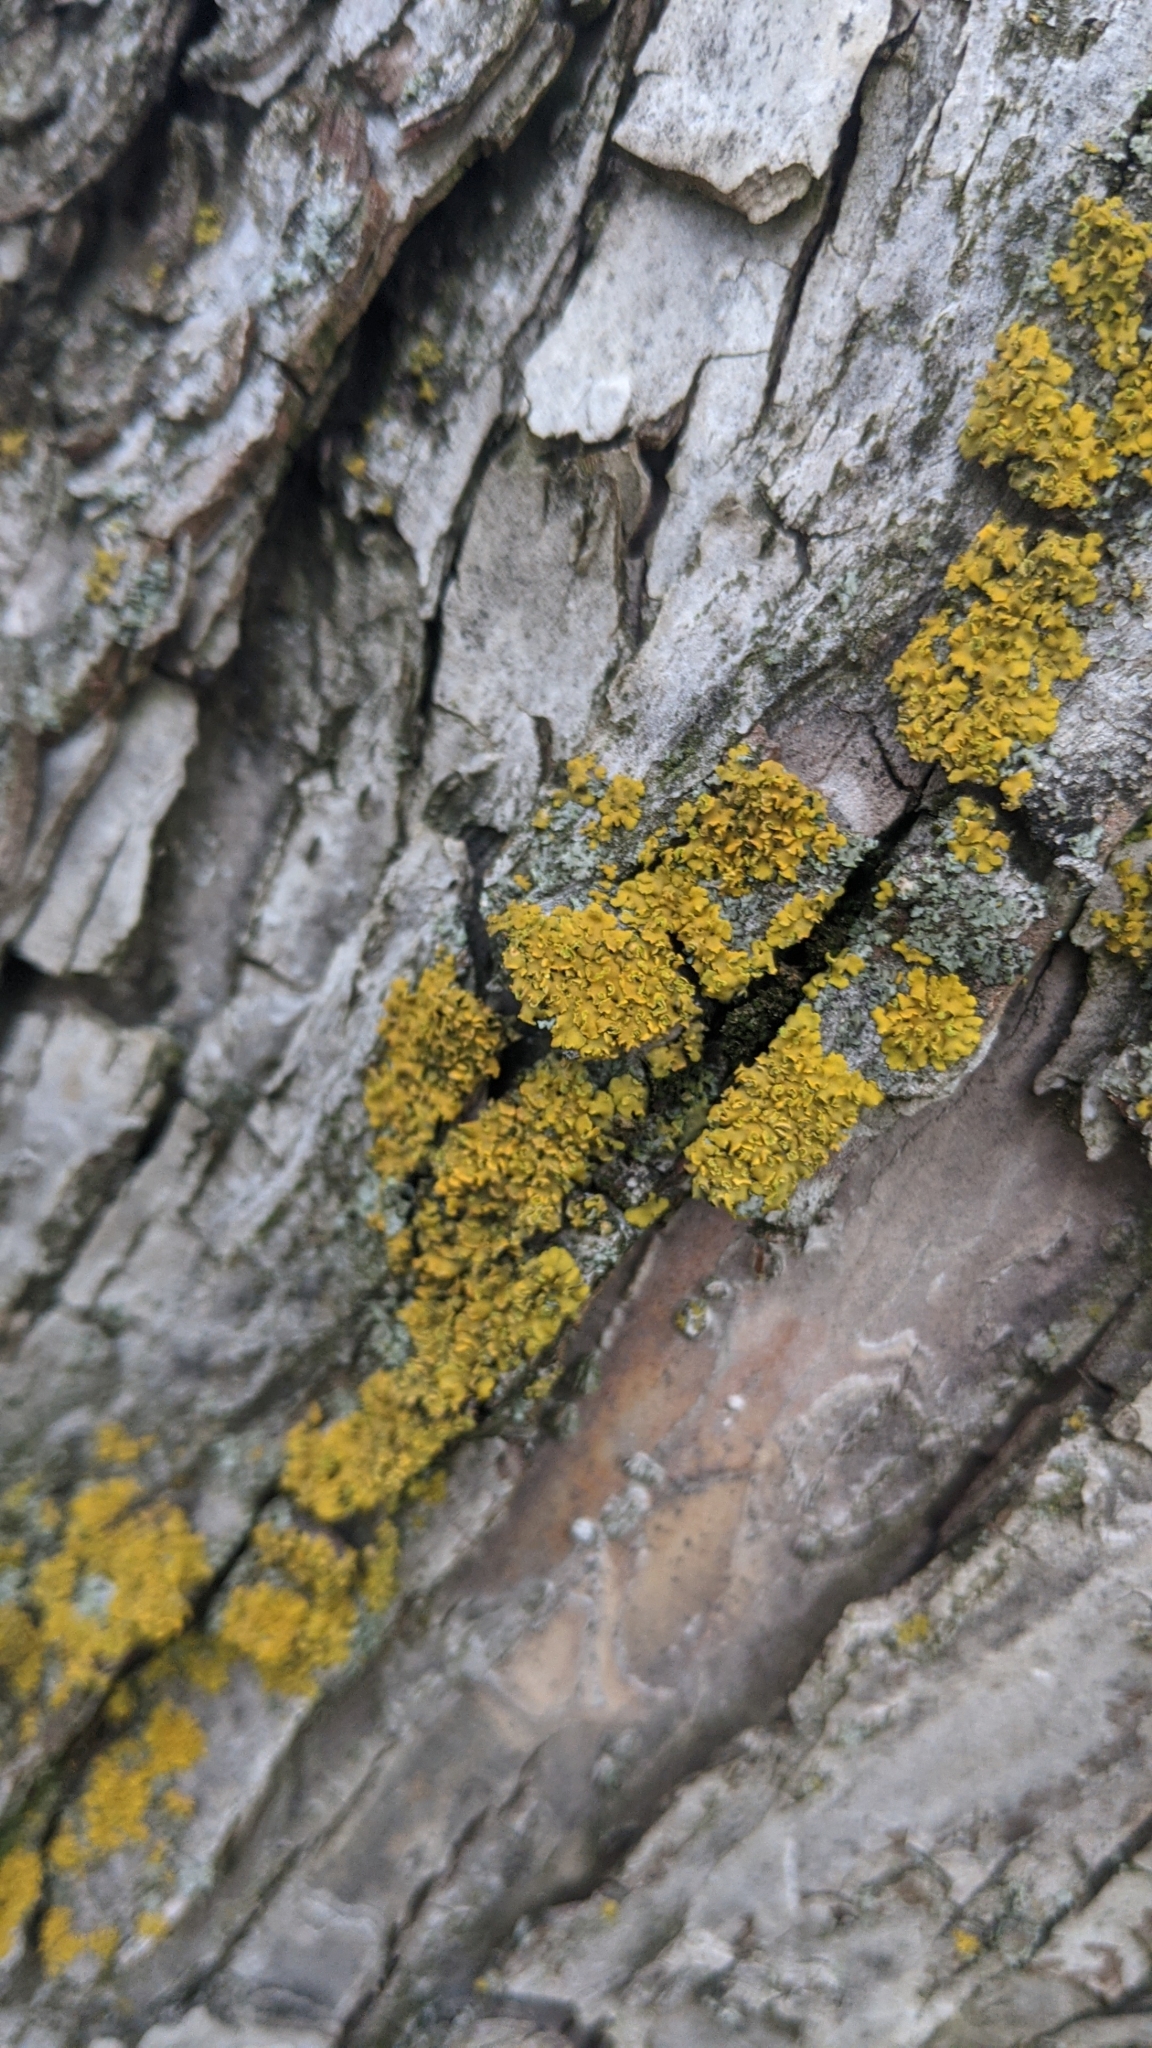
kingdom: Fungi
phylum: Ascomycota
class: Lecanoromycetes
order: Teloschistales
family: Teloschistaceae
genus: Oxneria
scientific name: Oxneria fallax
